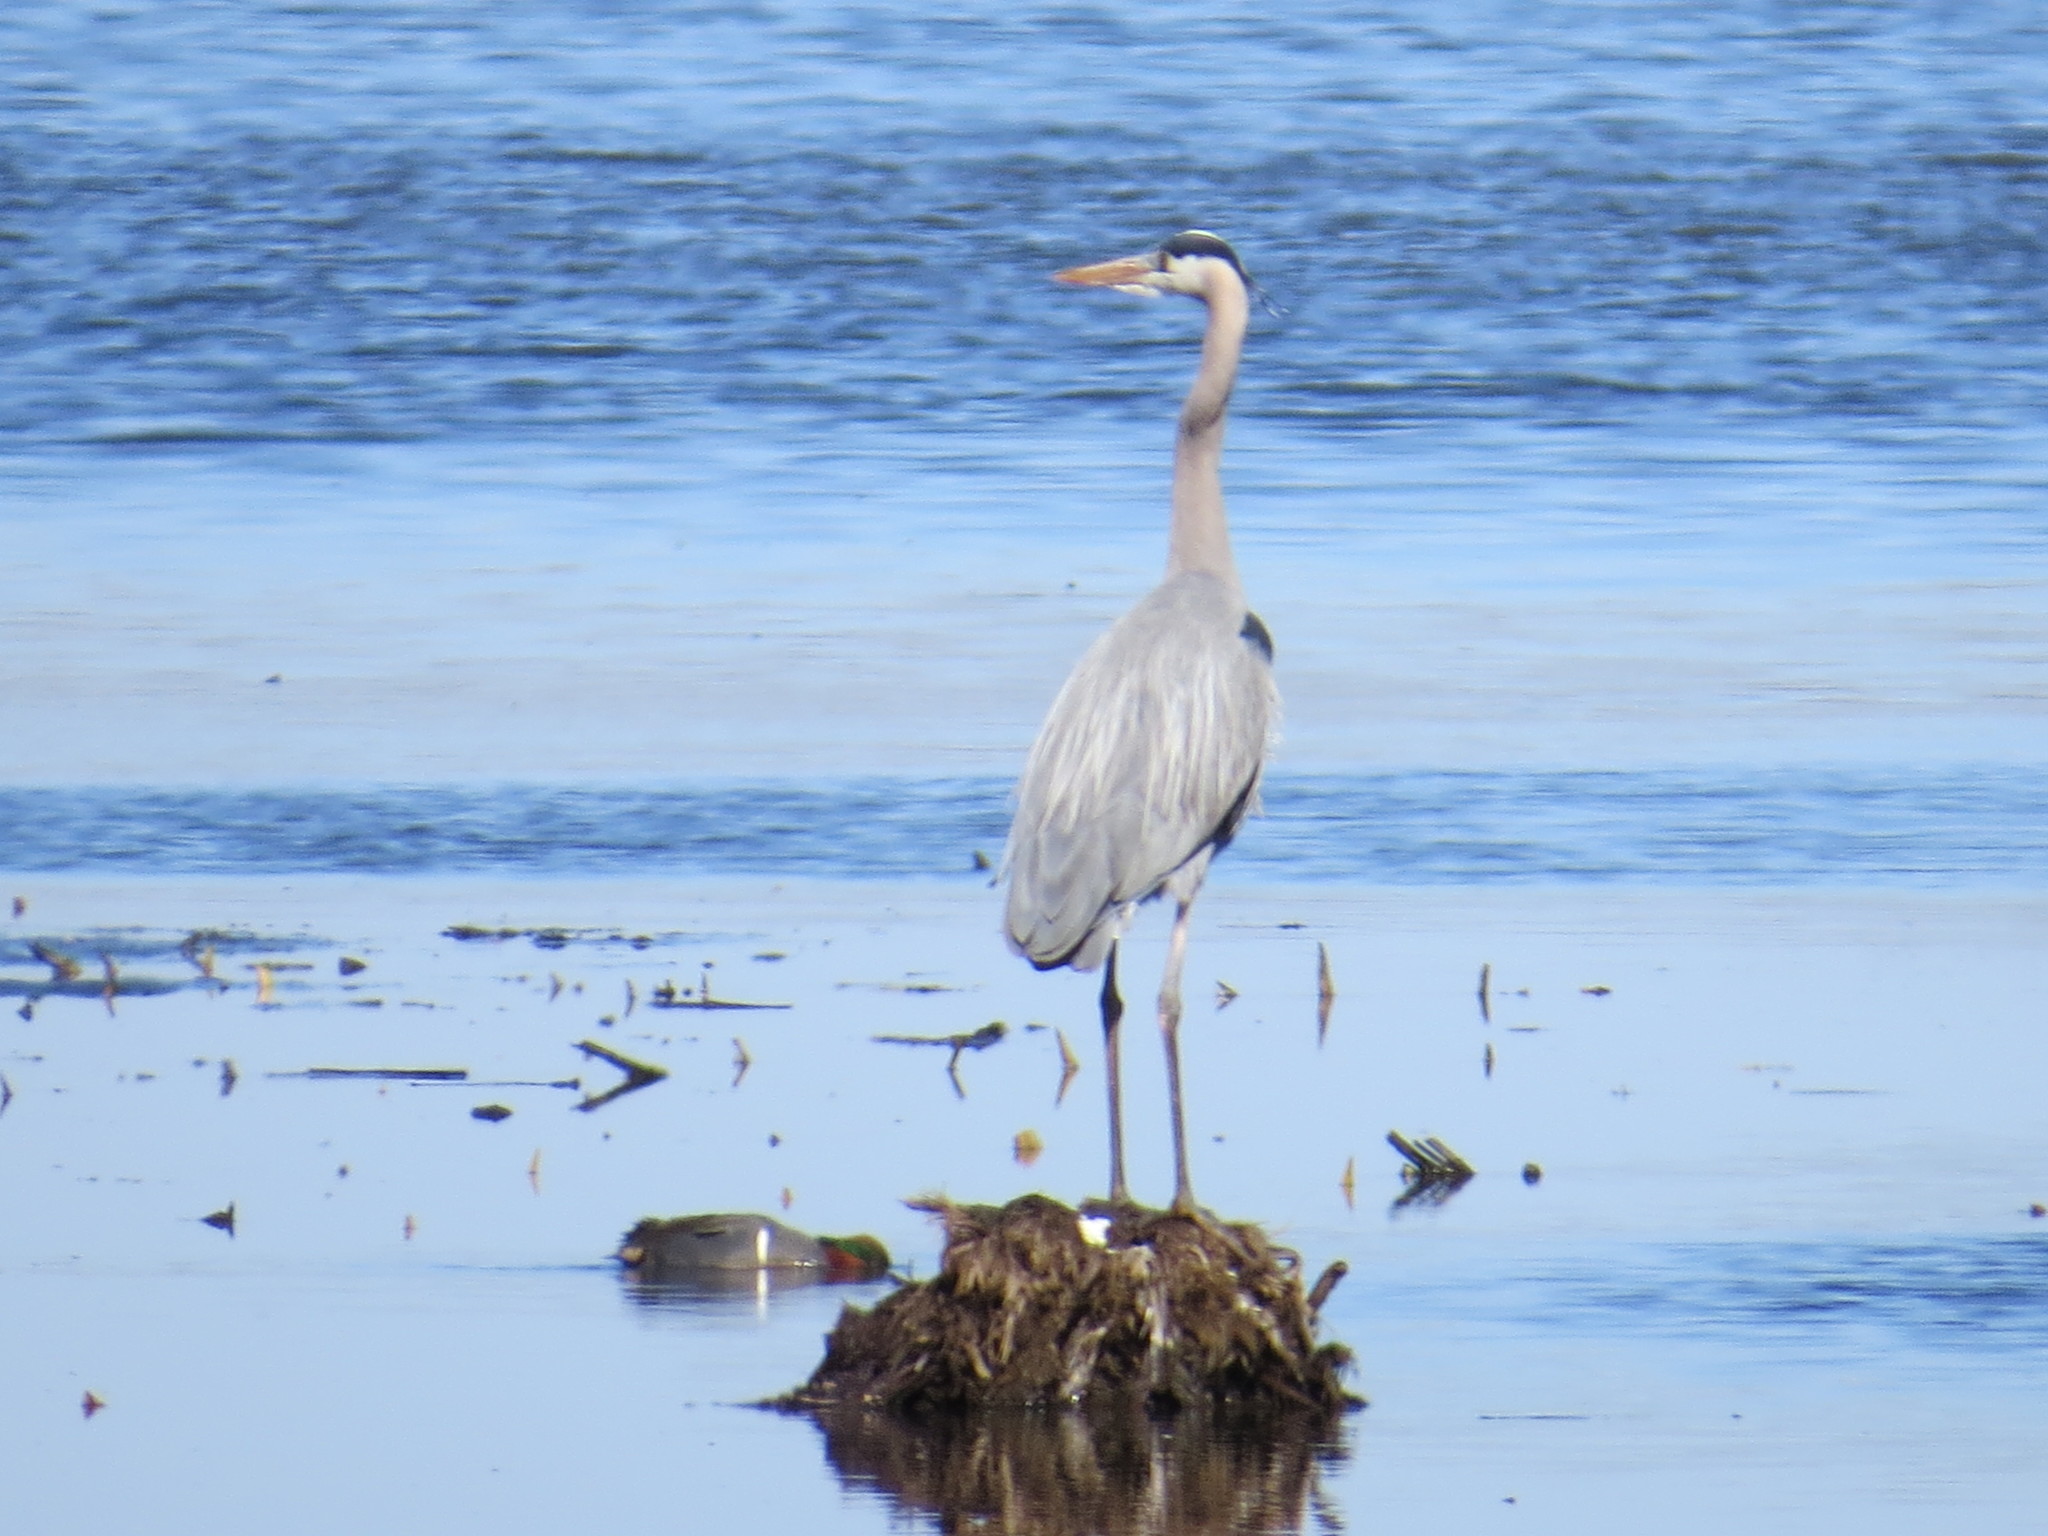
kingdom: Animalia
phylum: Chordata
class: Aves
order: Pelecaniformes
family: Ardeidae
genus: Ardea
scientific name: Ardea herodias
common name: Great blue heron
